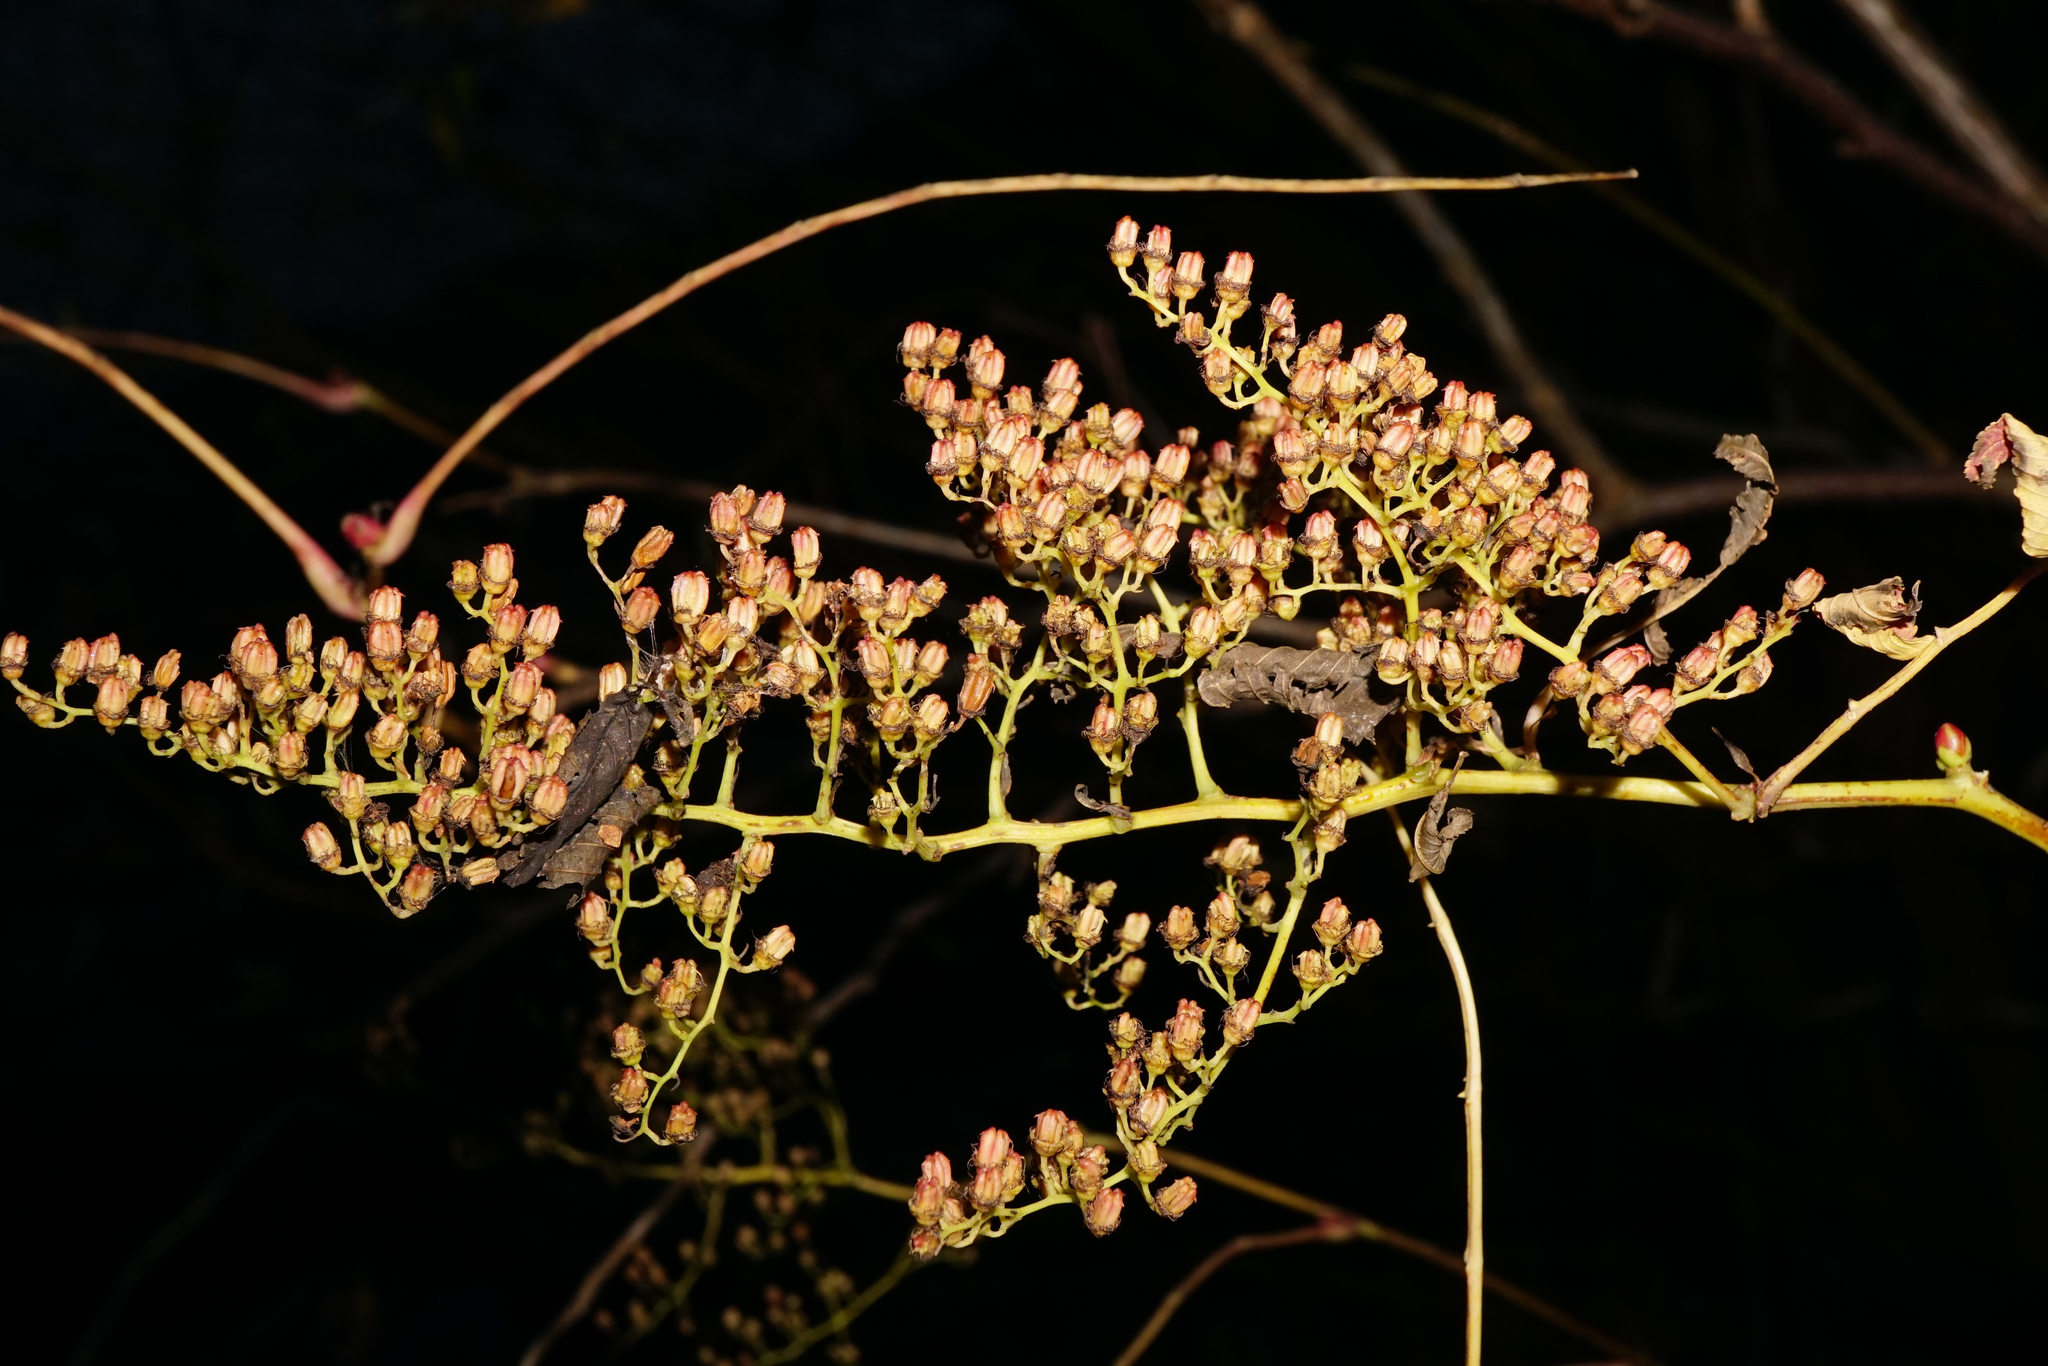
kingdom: Plantae
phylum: Tracheophyta
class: Magnoliopsida
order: Rosales
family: Rosaceae
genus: Sorbaria
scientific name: Sorbaria sorbifolia
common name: False spiraea
